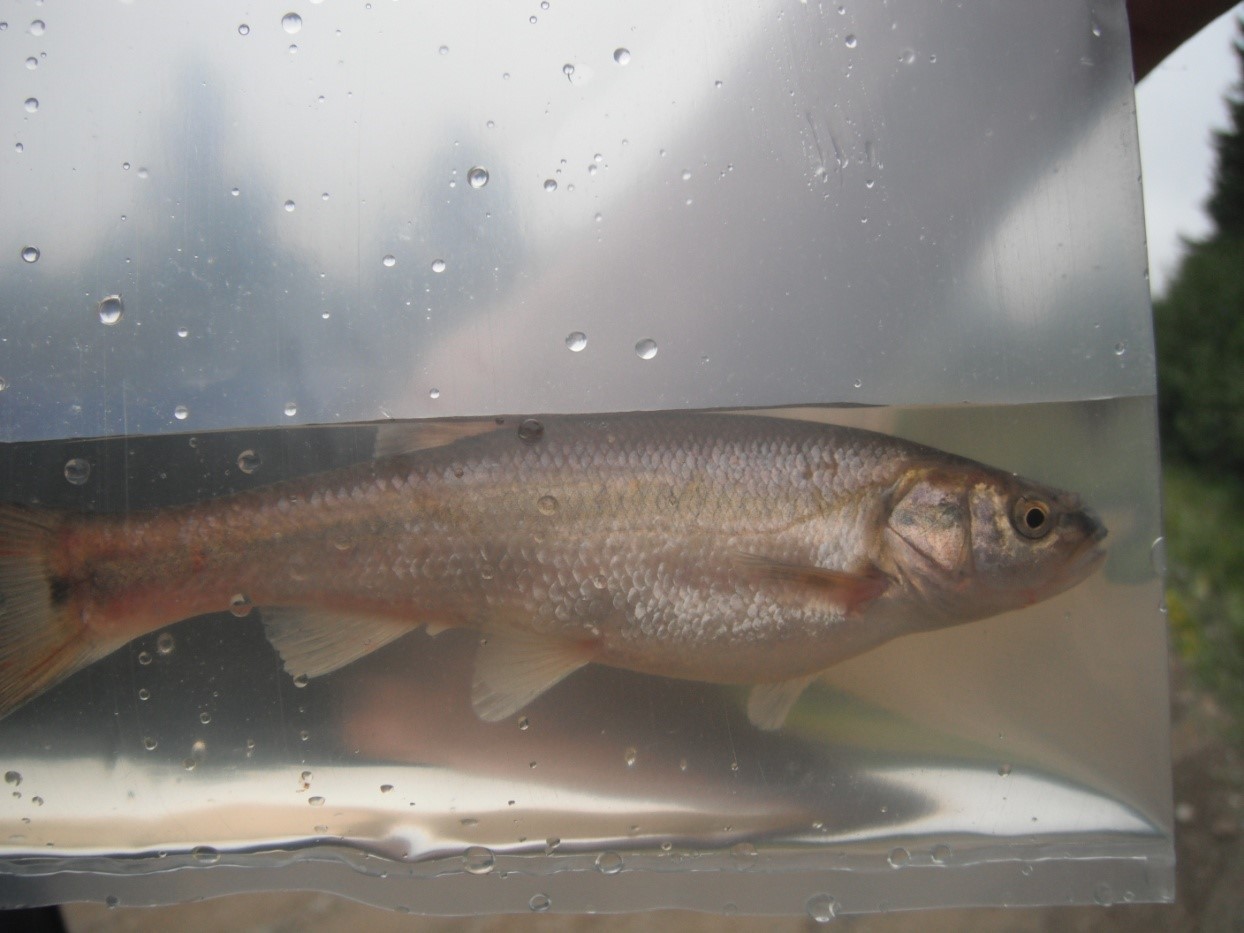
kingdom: Animalia
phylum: Chordata
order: Cypriniformes
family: Cyprinidae
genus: Semotilus
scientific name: Semotilus atromaculatus
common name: Creek chub
